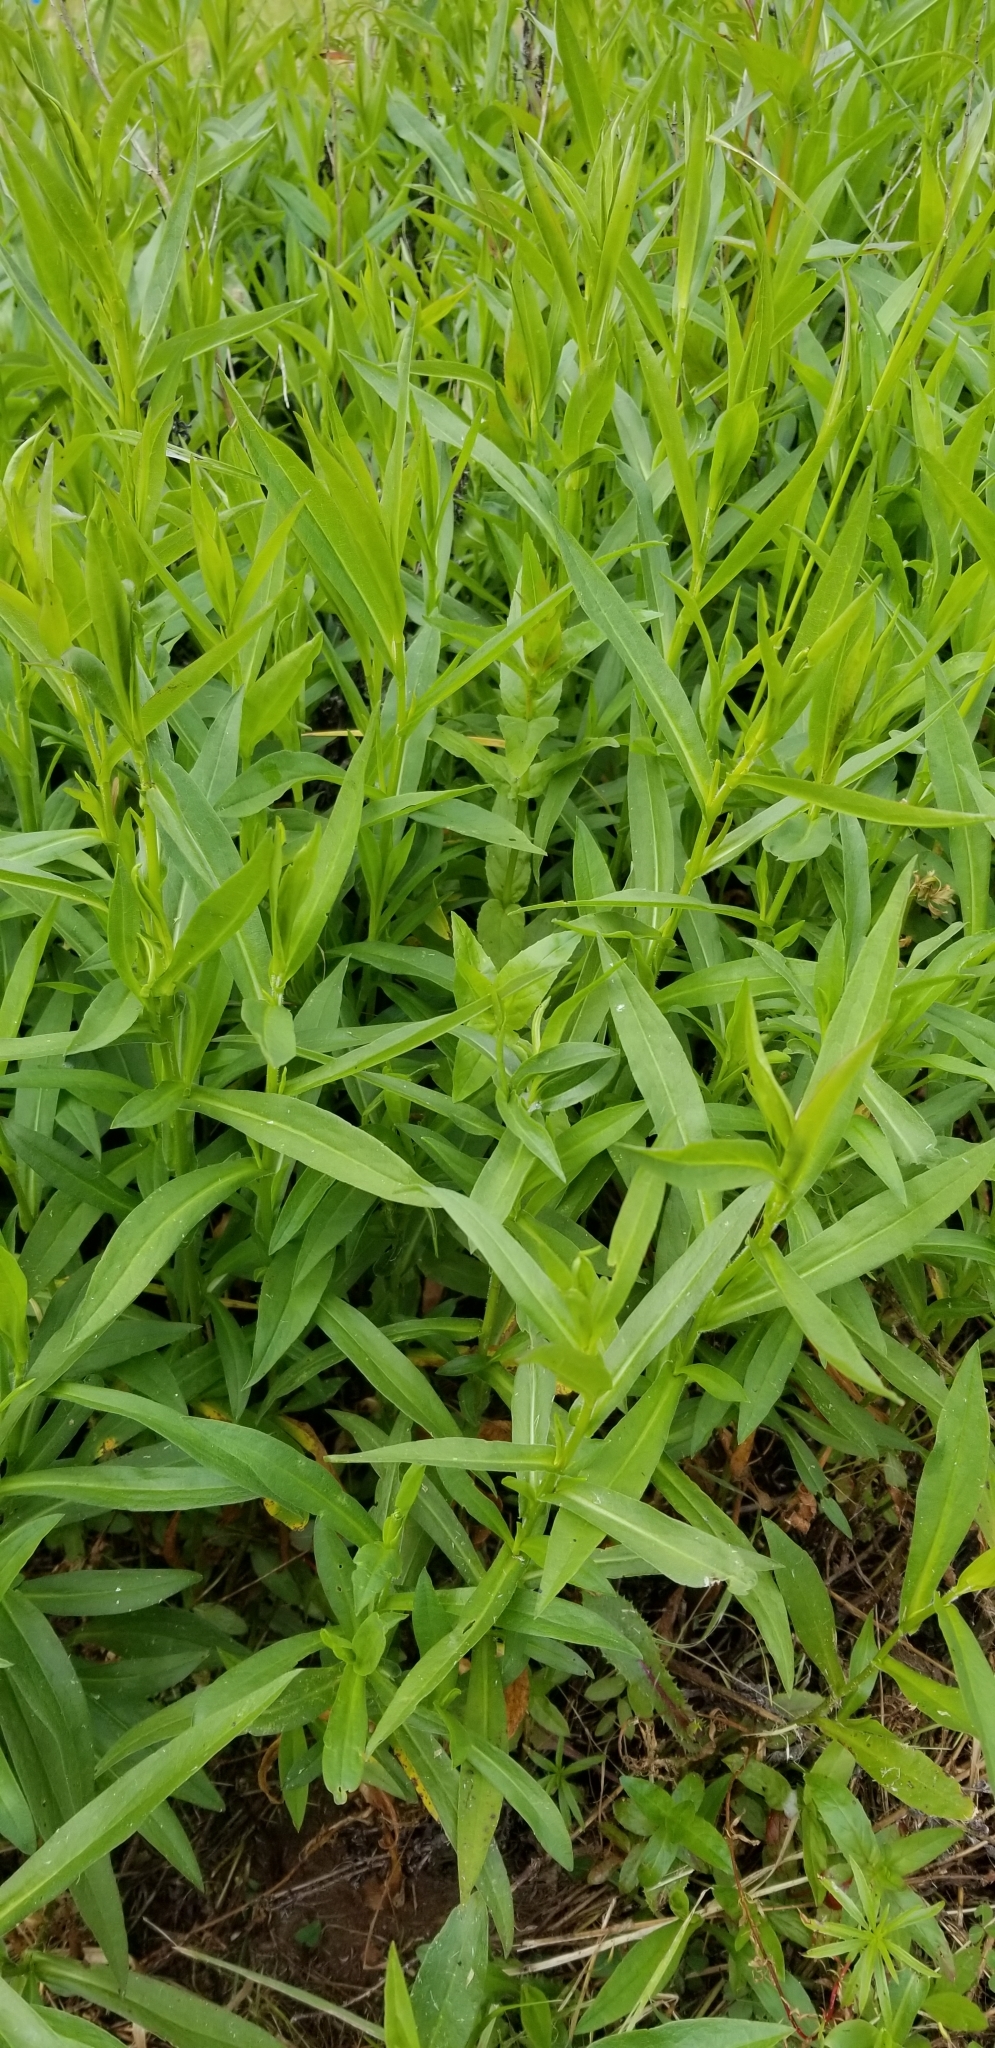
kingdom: Plantae
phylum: Tracheophyta
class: Magnoliopsida
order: Asterales
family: Asteraceae
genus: Symphyotrichum
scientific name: Symphyotrichum chilense
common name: Pacific aster
